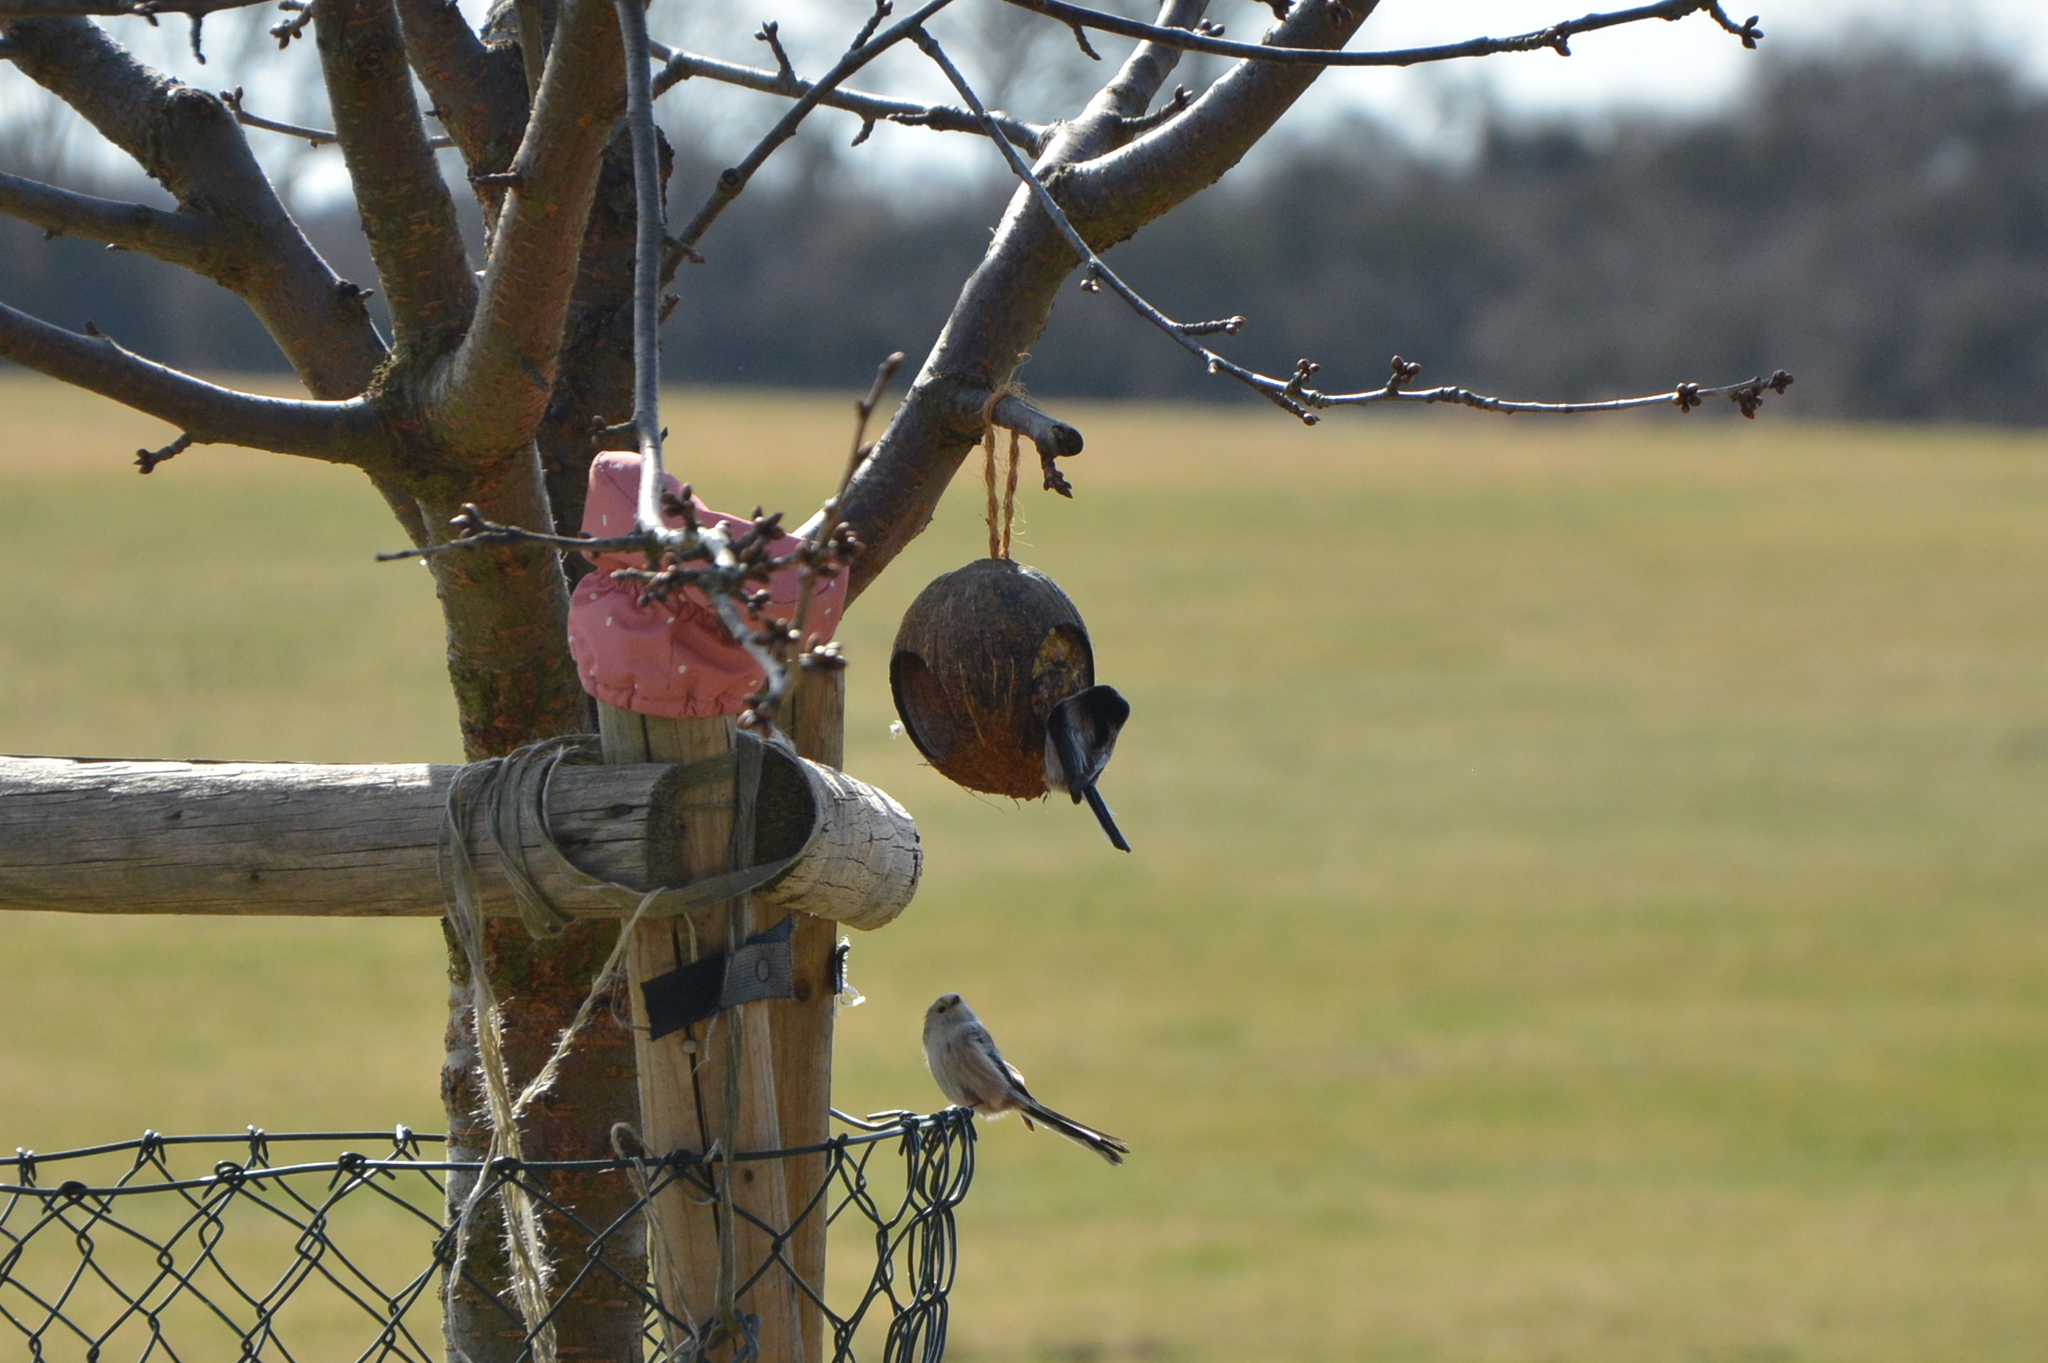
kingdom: Animalia
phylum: Chordata
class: Aves
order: Passeriformes
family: Aegithalidae
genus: Aegithalos
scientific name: Aegithalos caudatus
